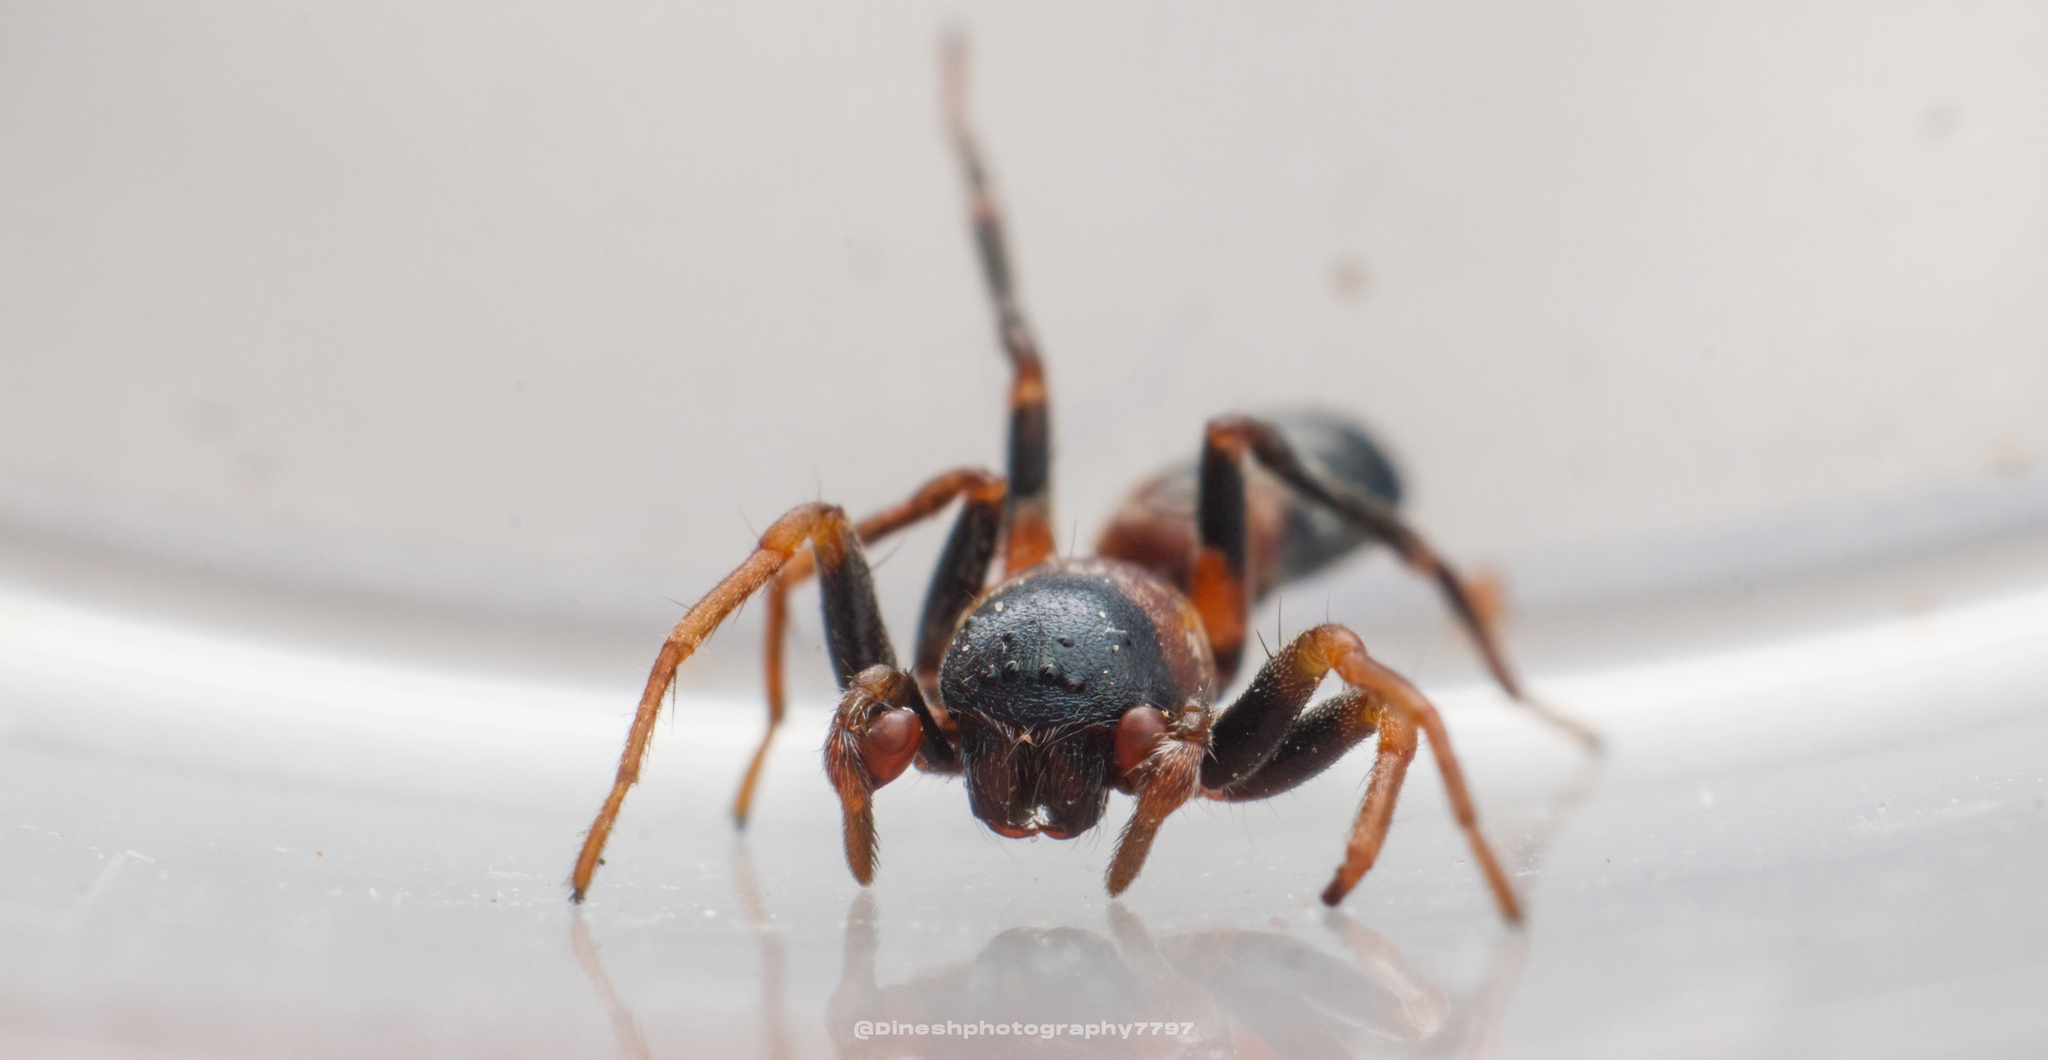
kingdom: Animalia
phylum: Arthropoda
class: Arachnida
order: Araneae
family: Corinnidae
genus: Aetius
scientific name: Aetius decollatus
